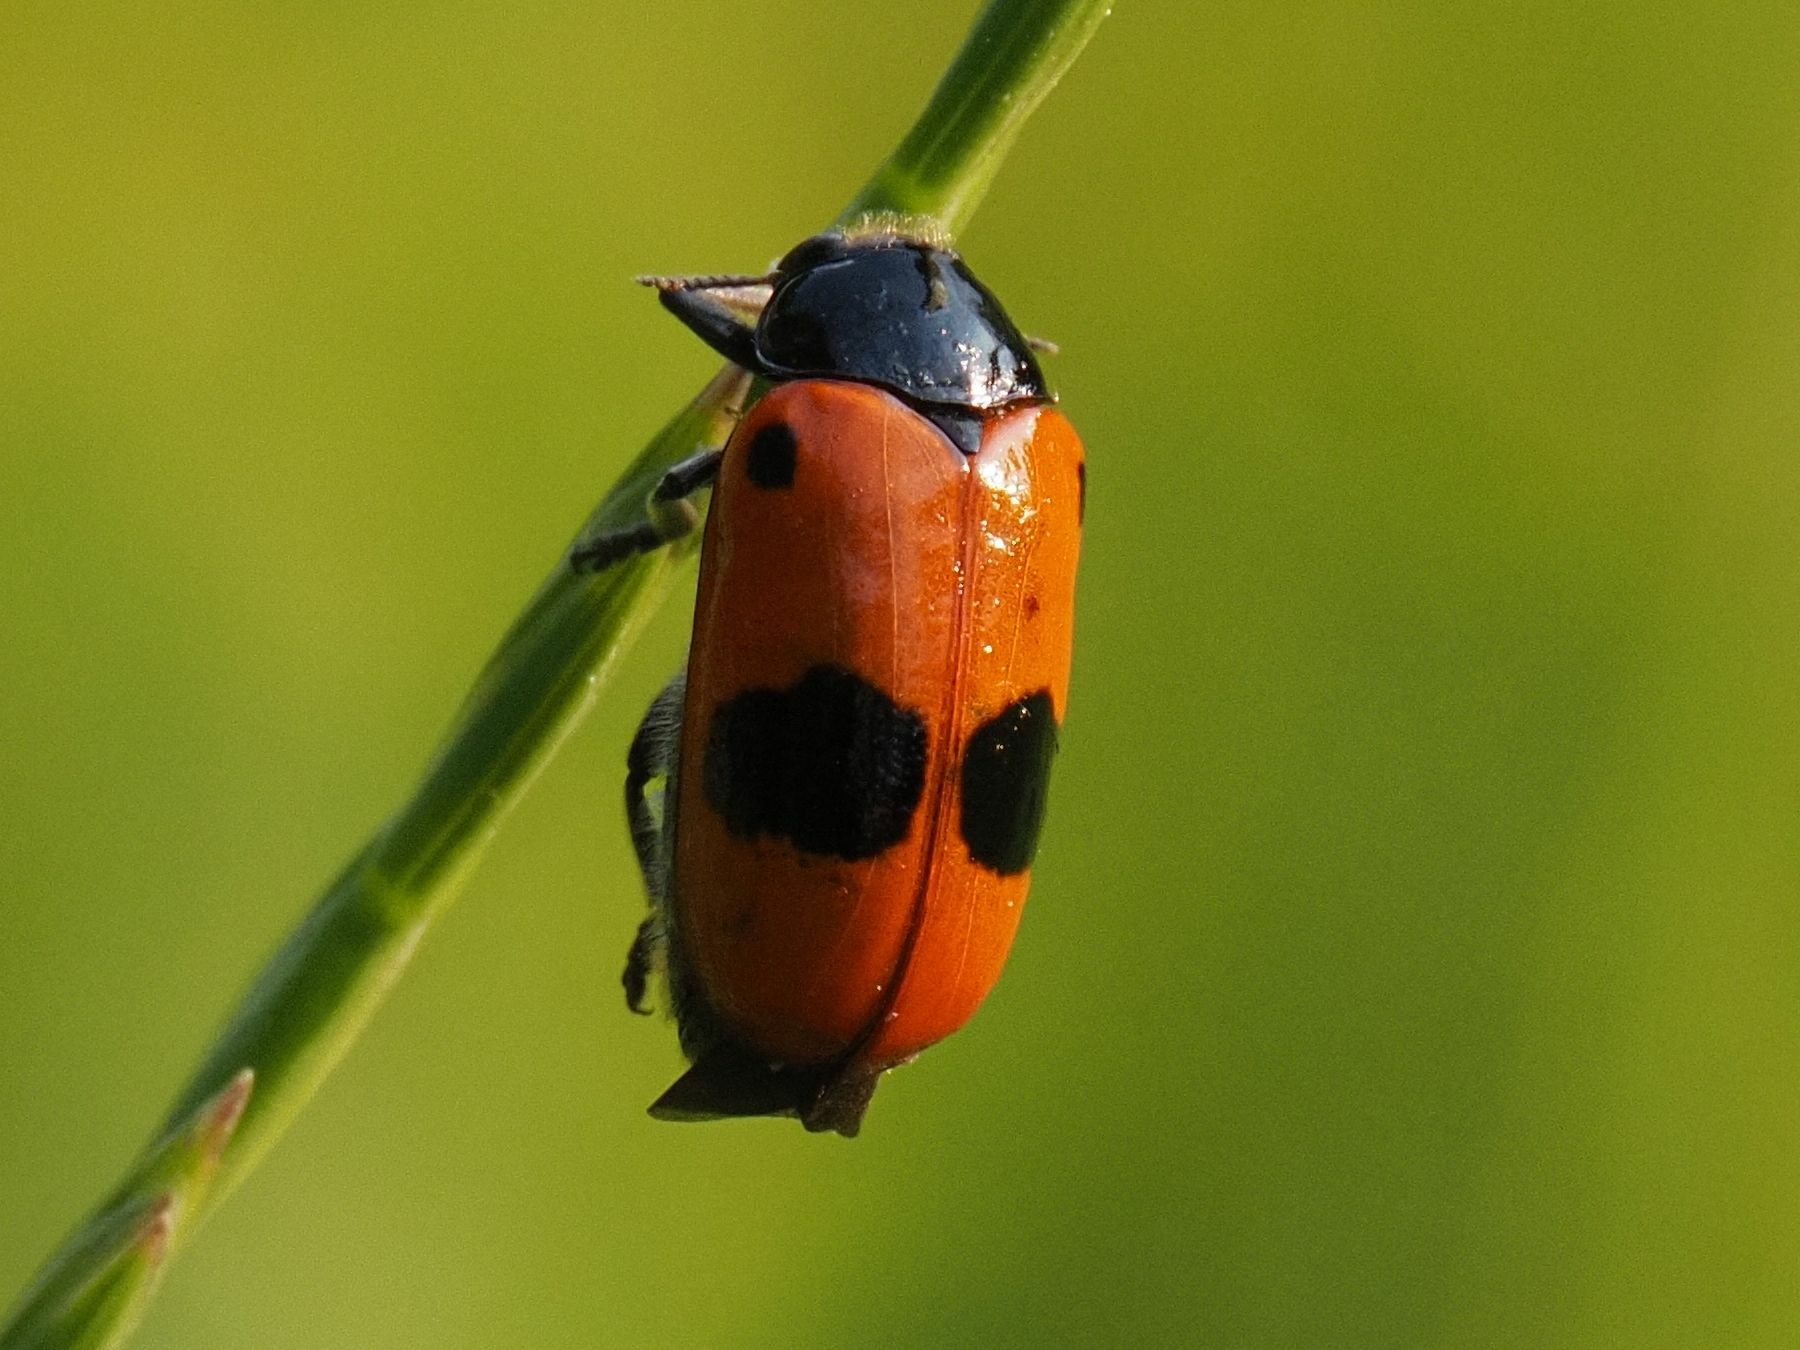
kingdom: Animalia
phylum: Arthropoda
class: Insecta
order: Coleoptera
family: Chrysomelidae
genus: Clytra
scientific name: Clytra laeviuscula
